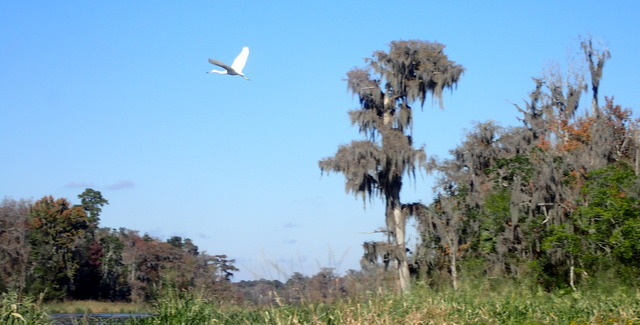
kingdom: Animalia
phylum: Chordata
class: Aves
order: Pelecaniformes
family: Ardeidae
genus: Egretta
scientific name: Egretta caerulea
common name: Little blue heron
